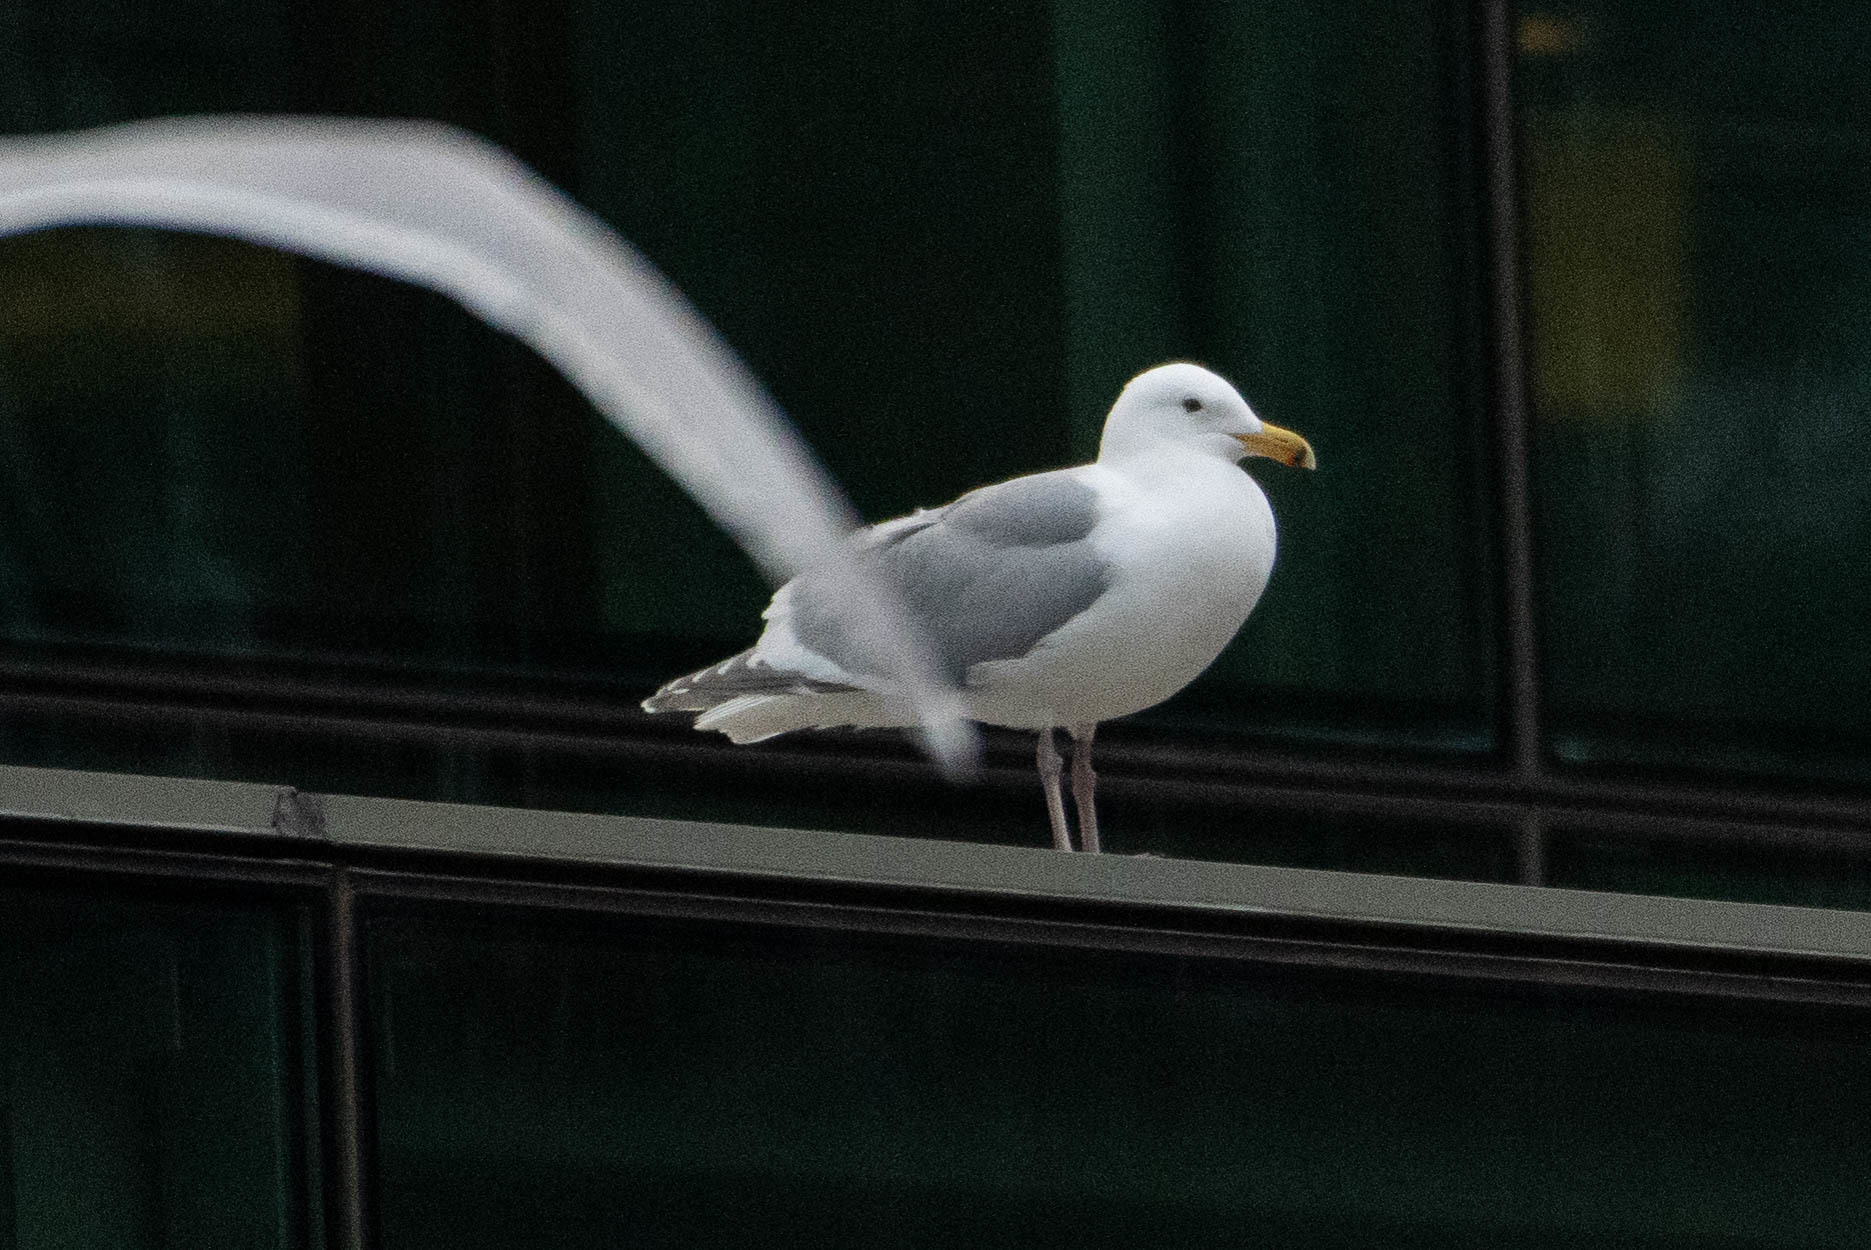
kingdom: Animalia
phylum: Chordata
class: Aves
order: Charadriiformes
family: Laridae
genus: Larus
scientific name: Larus
